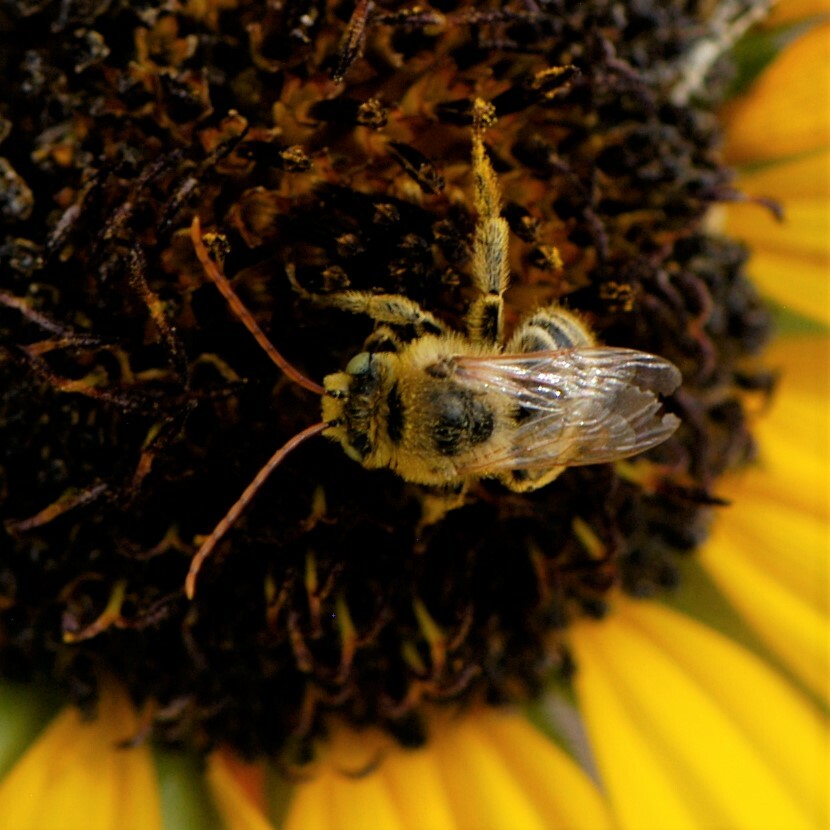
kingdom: Animalia
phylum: Arthropoda
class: Insecta
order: Hymenoptera
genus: Eumelissodes
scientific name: Eumelissodes
